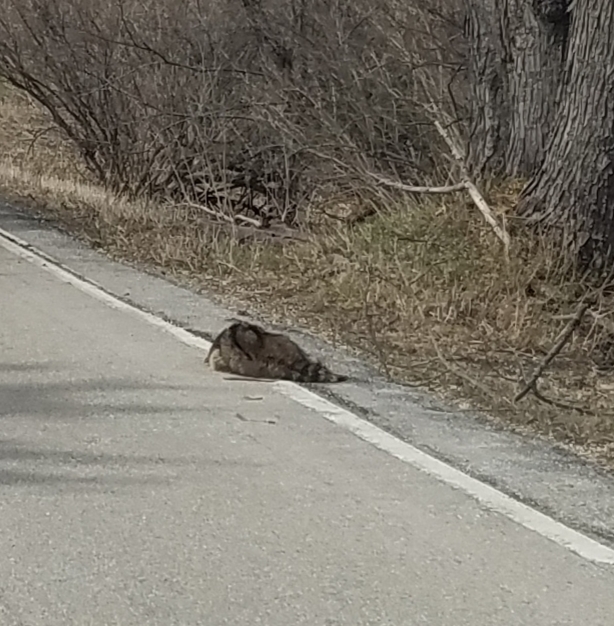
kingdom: Animalia
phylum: Chordata
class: Mammalia
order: Carnivora
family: Procyonidae
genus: Procyon
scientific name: Procyon lotor
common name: Raccoon
